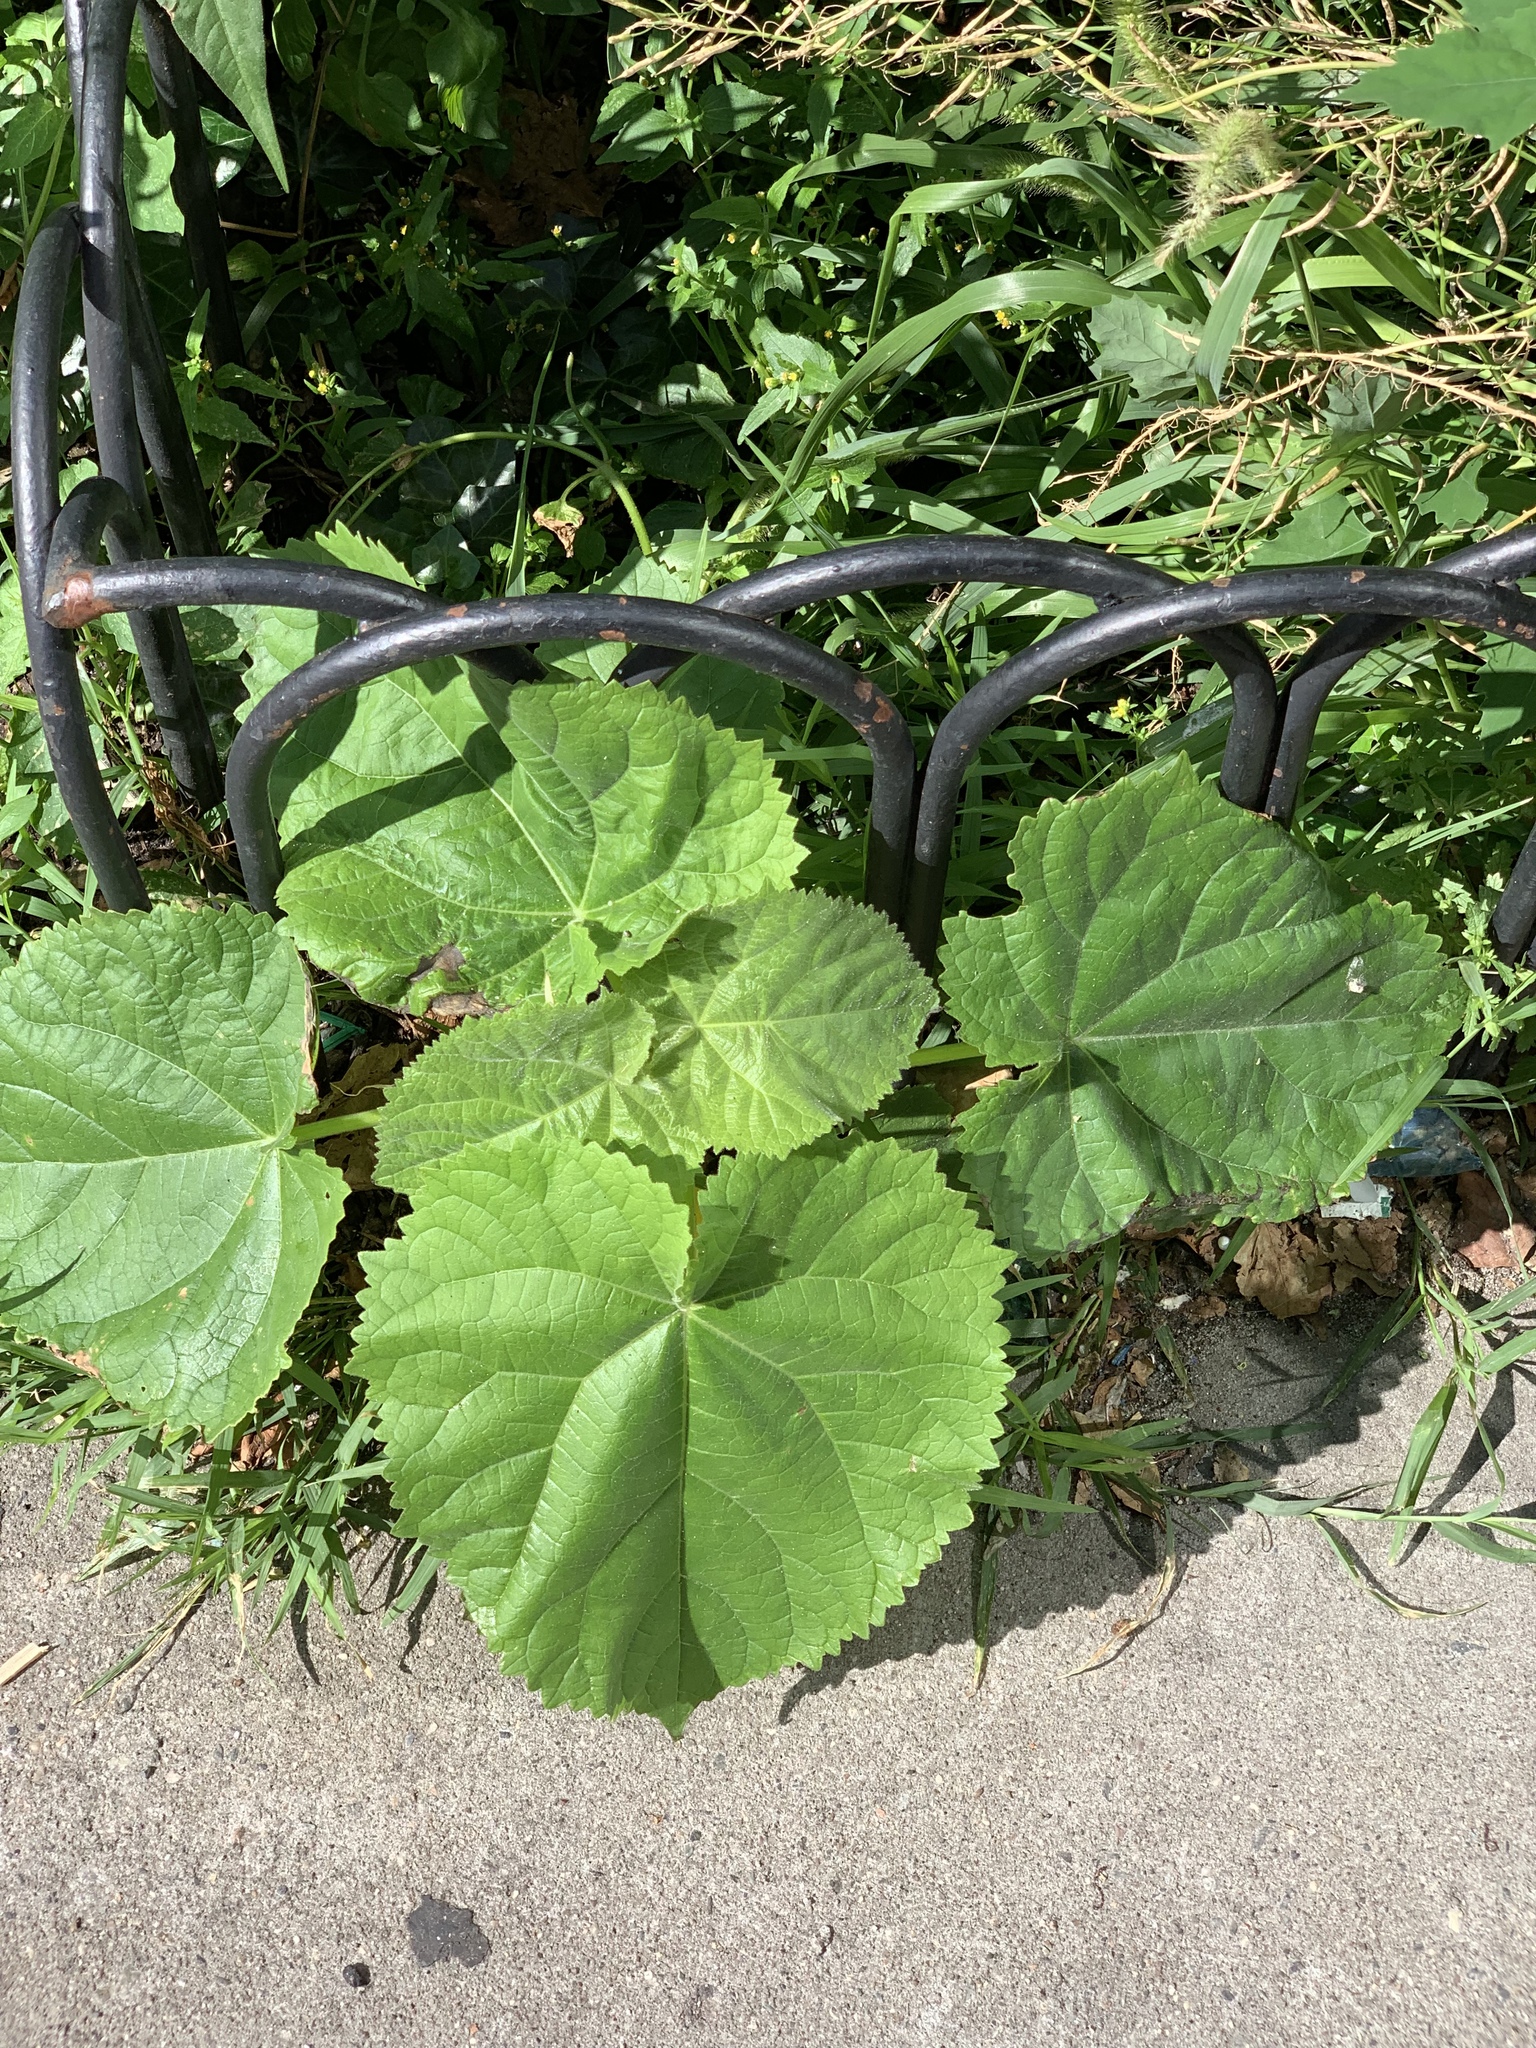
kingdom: Plantae
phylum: Tracheophyta
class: Magnoliopsida
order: Lamiales
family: Paulowniaceae
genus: Paulownia
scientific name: Paulownia tomentosa
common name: Foxglove-tree
